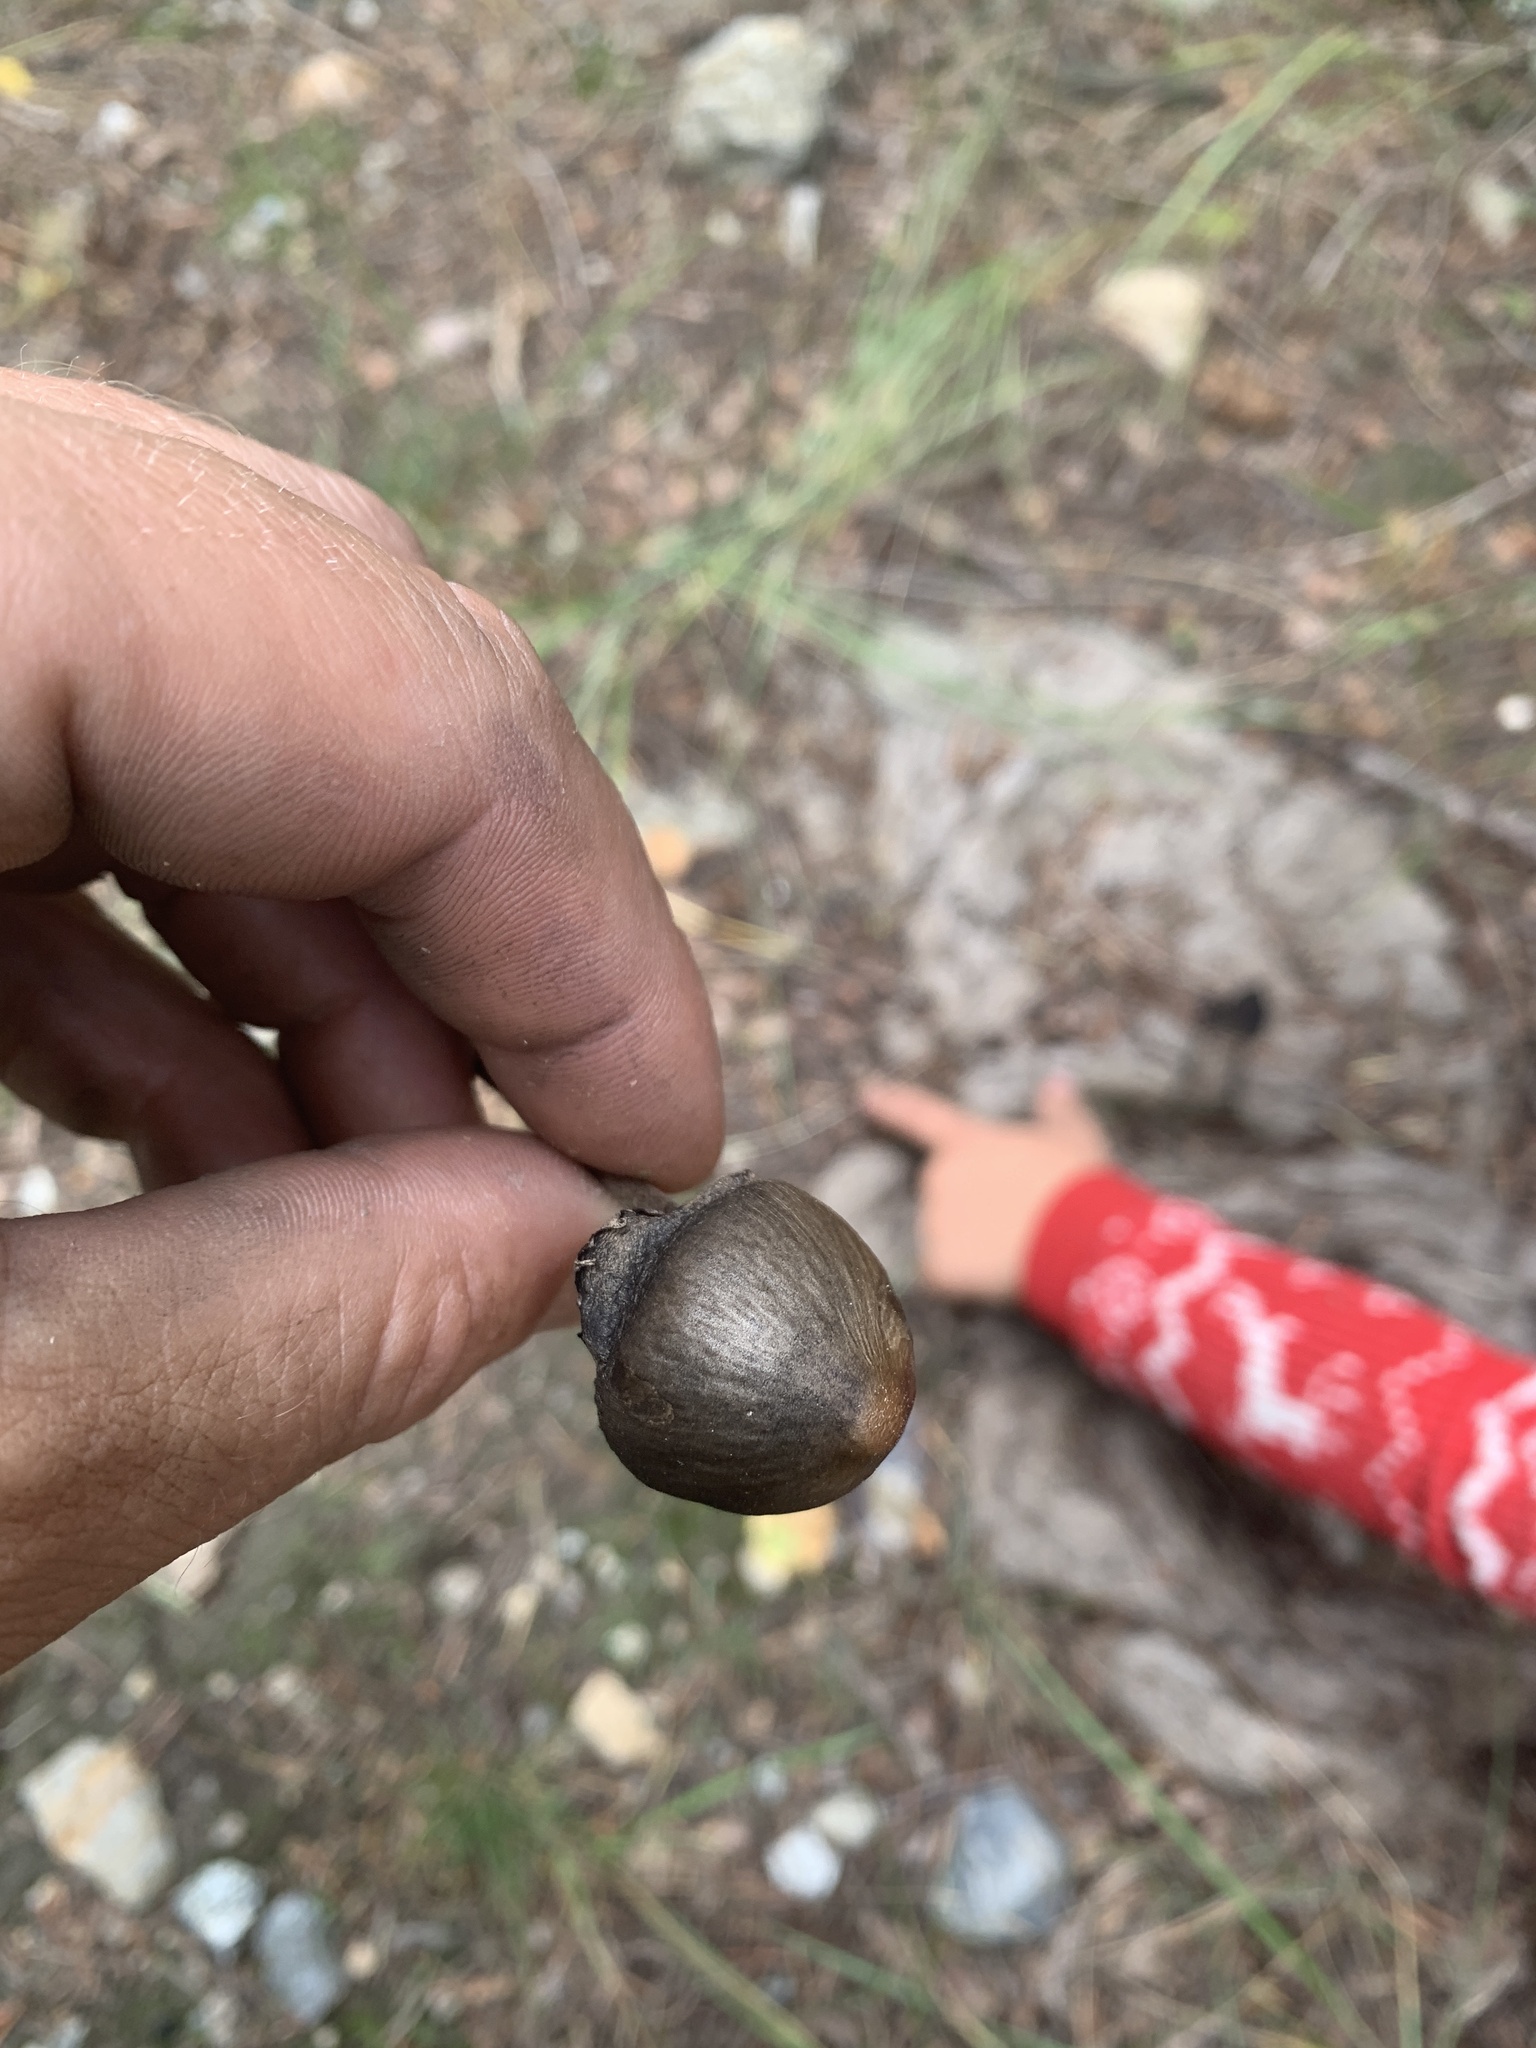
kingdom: Fungi
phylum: Basidiomycota
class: Agaricomycetes
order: Agaricales
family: Bolbitiaceae
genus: Panaeolus
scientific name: Panaeolus papilionaceus
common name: Petticoat mottlegill
